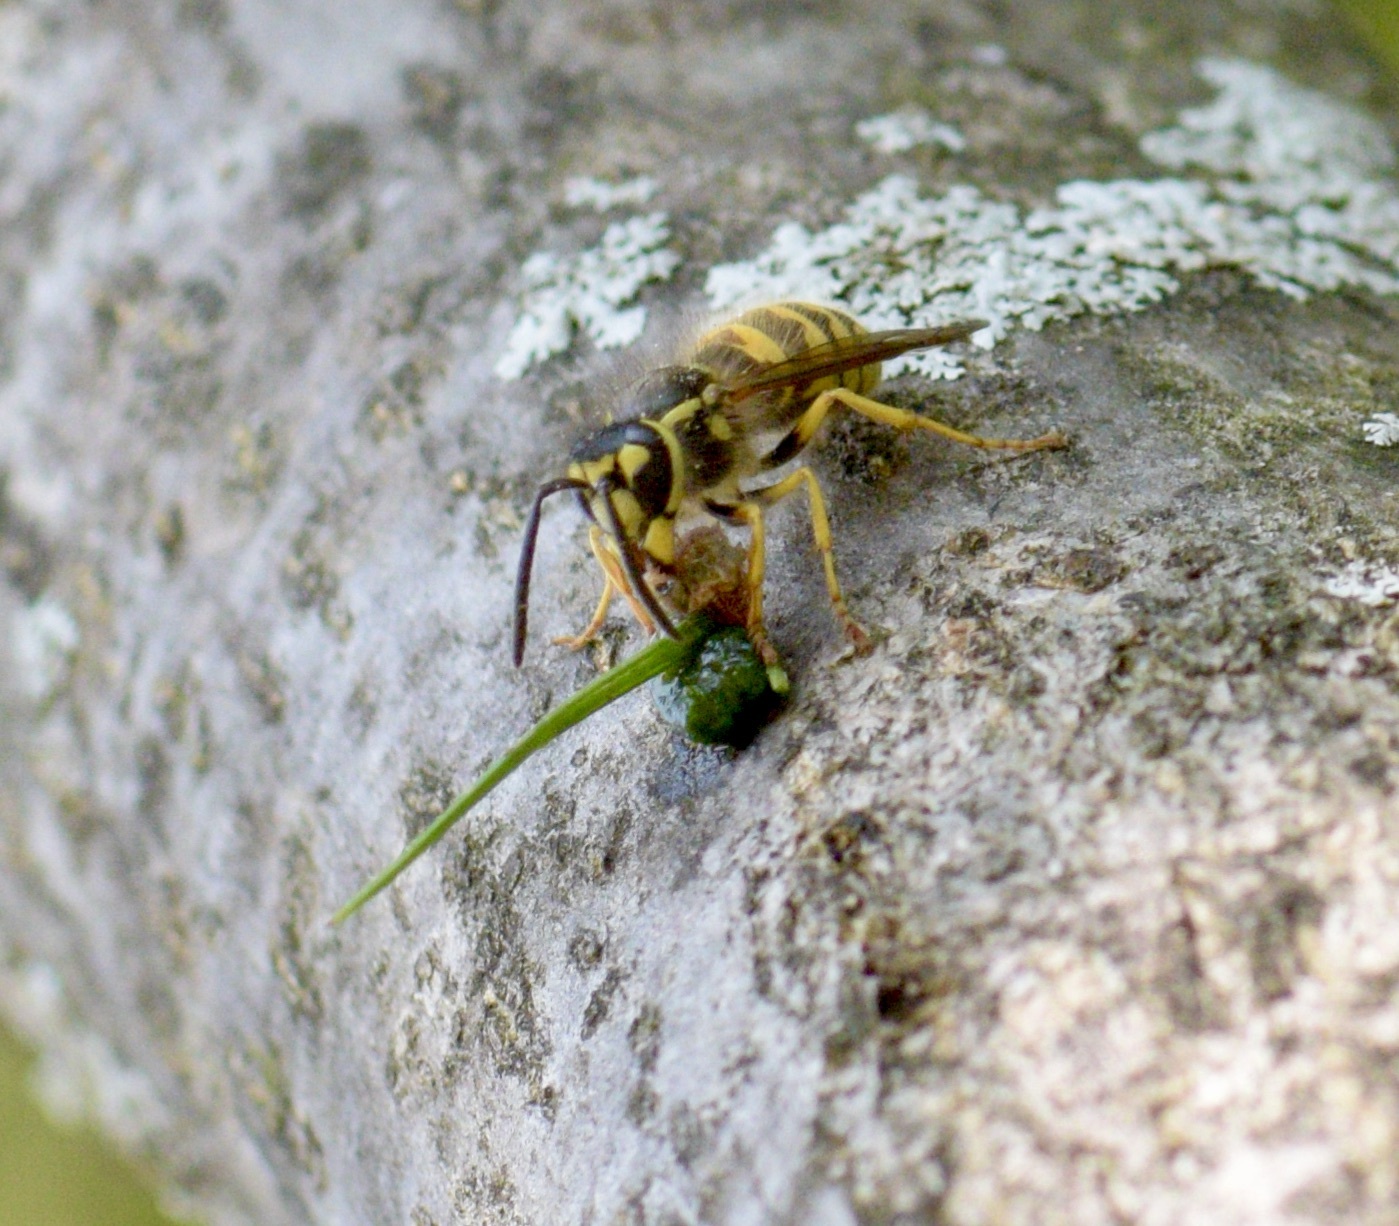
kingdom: Animalia
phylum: Arthropoda
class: Insecta
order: Hymenoptera
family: Vespidae
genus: Vespula
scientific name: Vespula flavopilosa
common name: Downy yellowjacket
